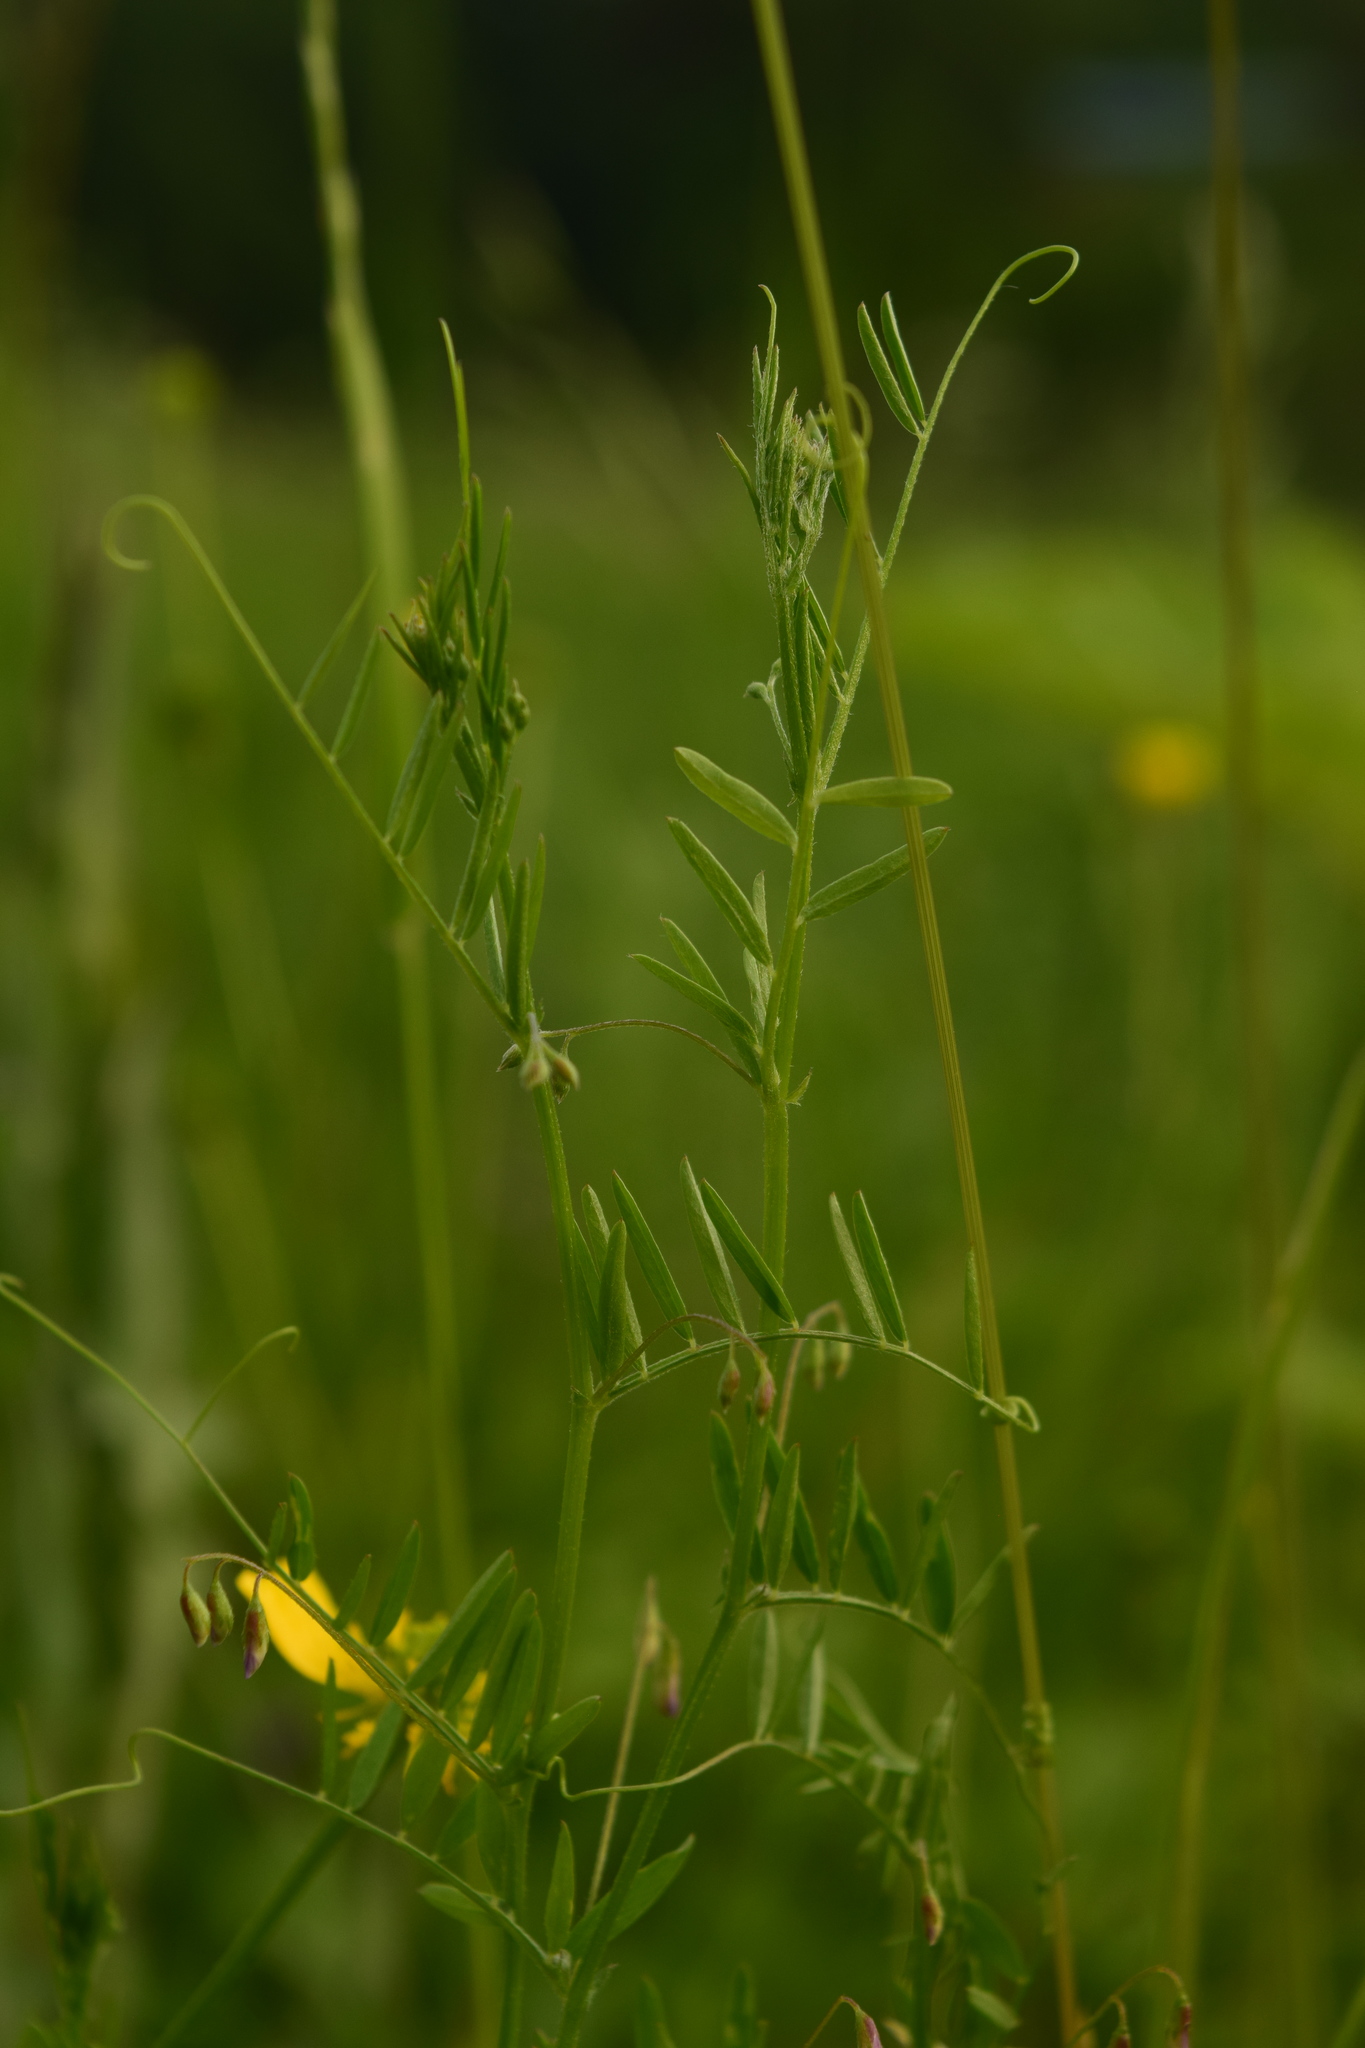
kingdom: Plantae
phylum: Tracheophyta
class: Magnoliopsida
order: Fabales
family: Fabaceae
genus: Vicia
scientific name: Vicia tetrasperma
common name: Smooth tare
